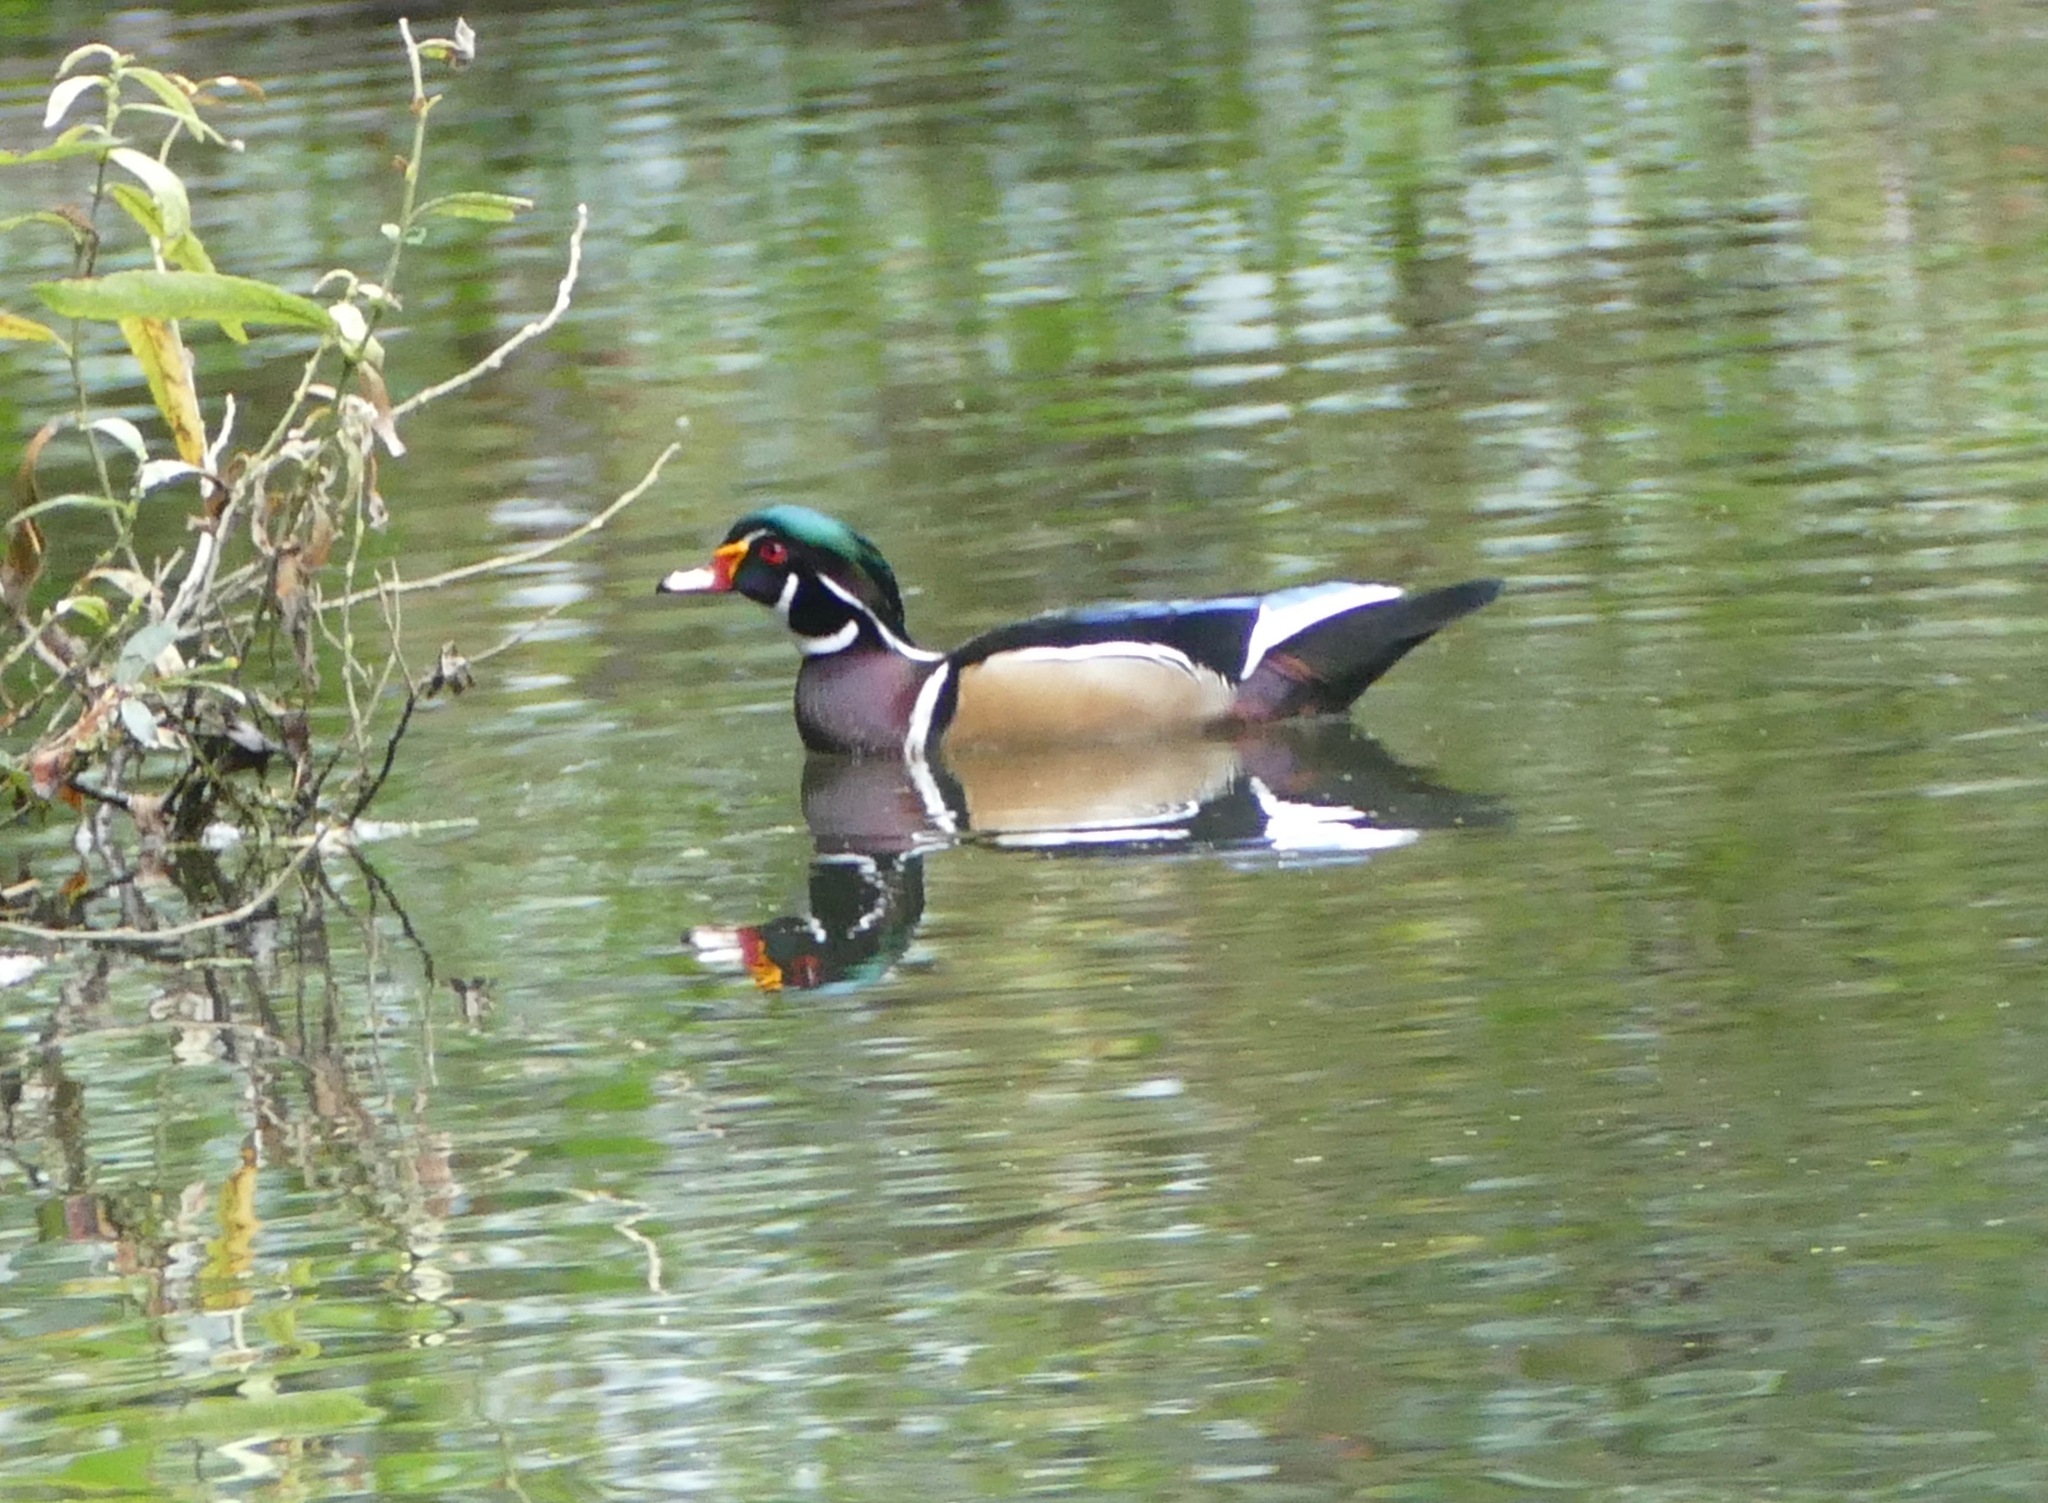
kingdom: Animalia
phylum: Chordata
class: Aves
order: Anseriformes
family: Anatidae
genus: Aix
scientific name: Aix sponsa
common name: Wood duck
